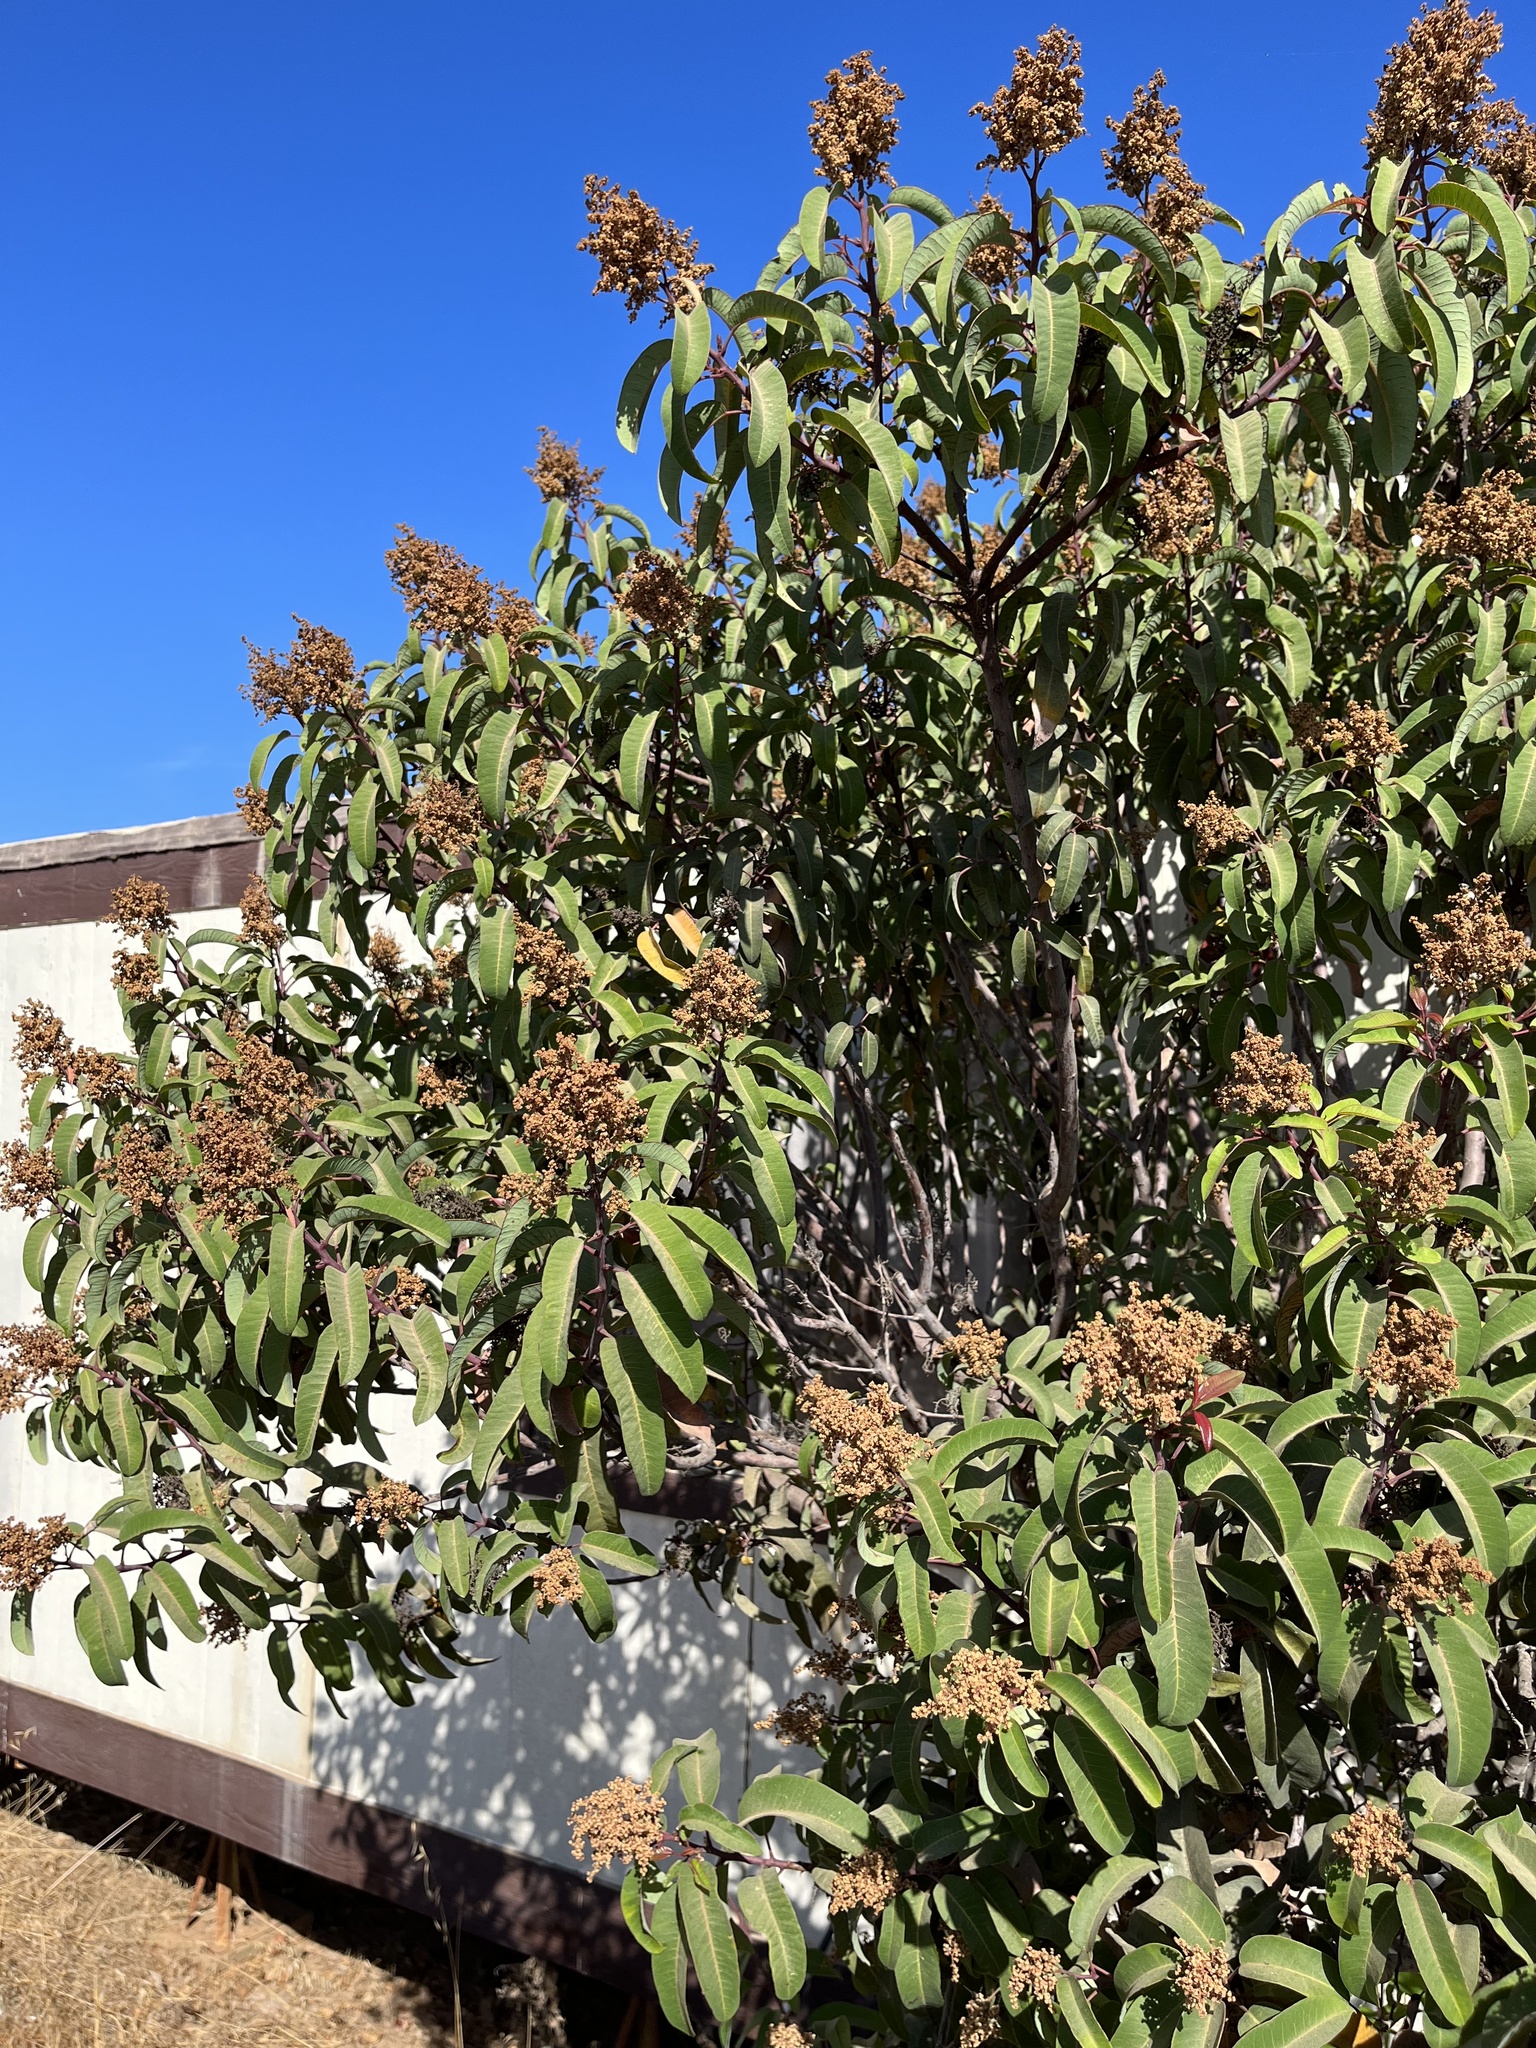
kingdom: Plantae
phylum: Tracheophyta
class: Magnoliopsida
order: Sapindales
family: Anacardiaceae
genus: Malosma
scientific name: Malosma laurina
